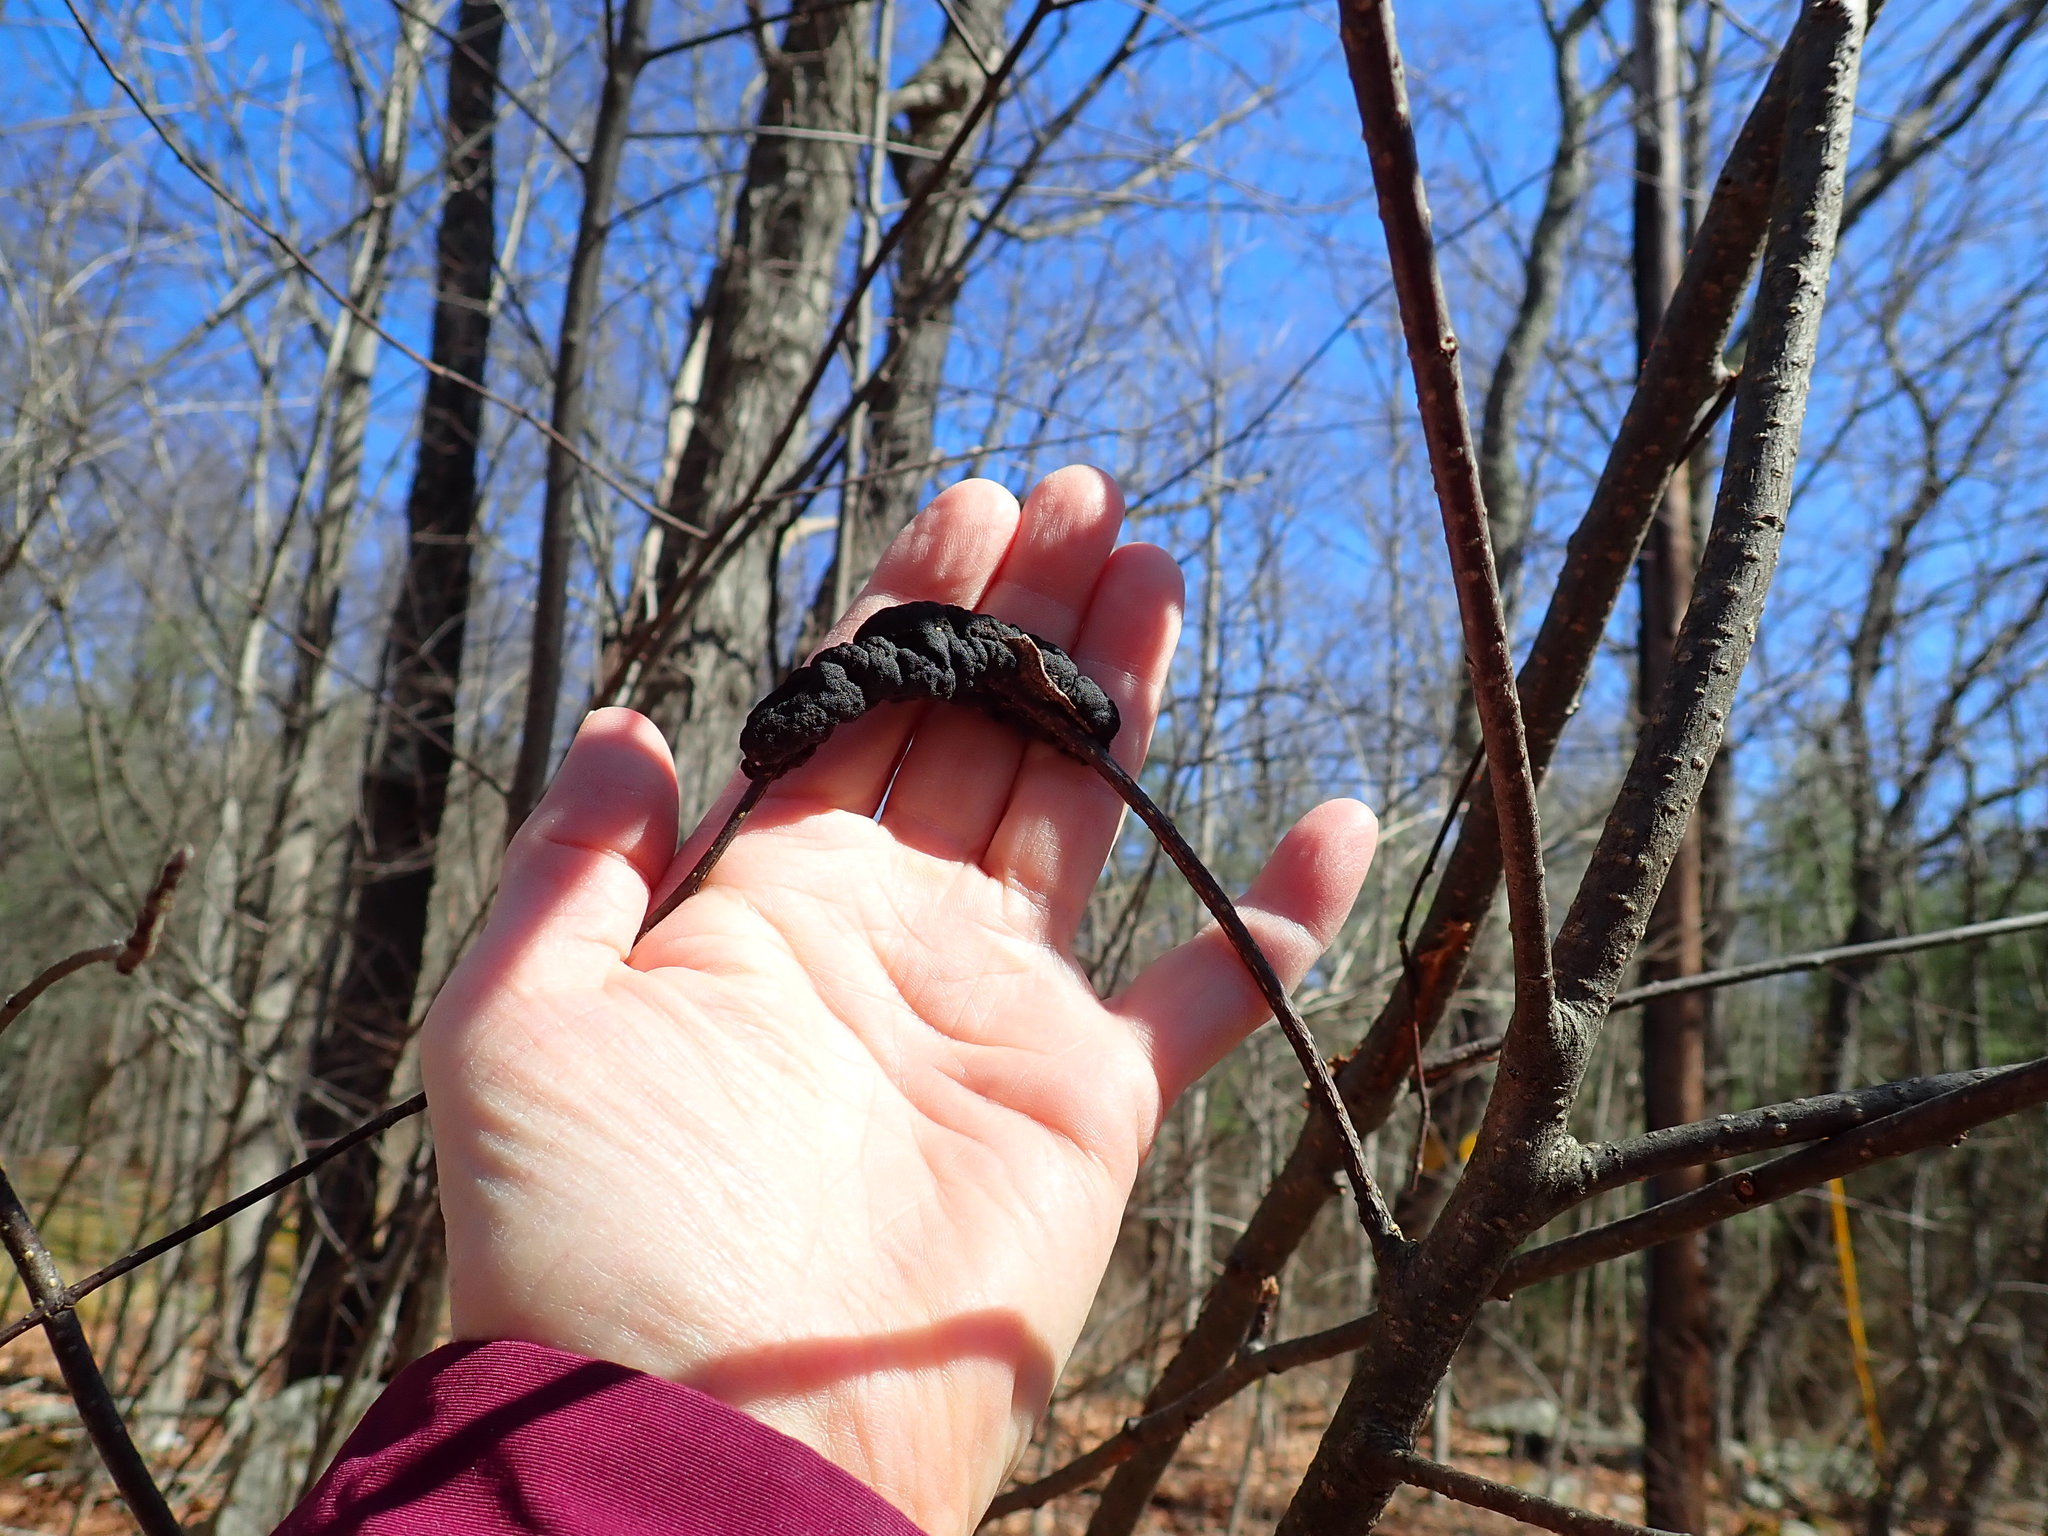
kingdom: Fungi
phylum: Ascomycota
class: Dothideomycetes
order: Venturiales
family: Venturiaceae
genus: Apiosporina
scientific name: Apiosporina morbosa
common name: Black knot
